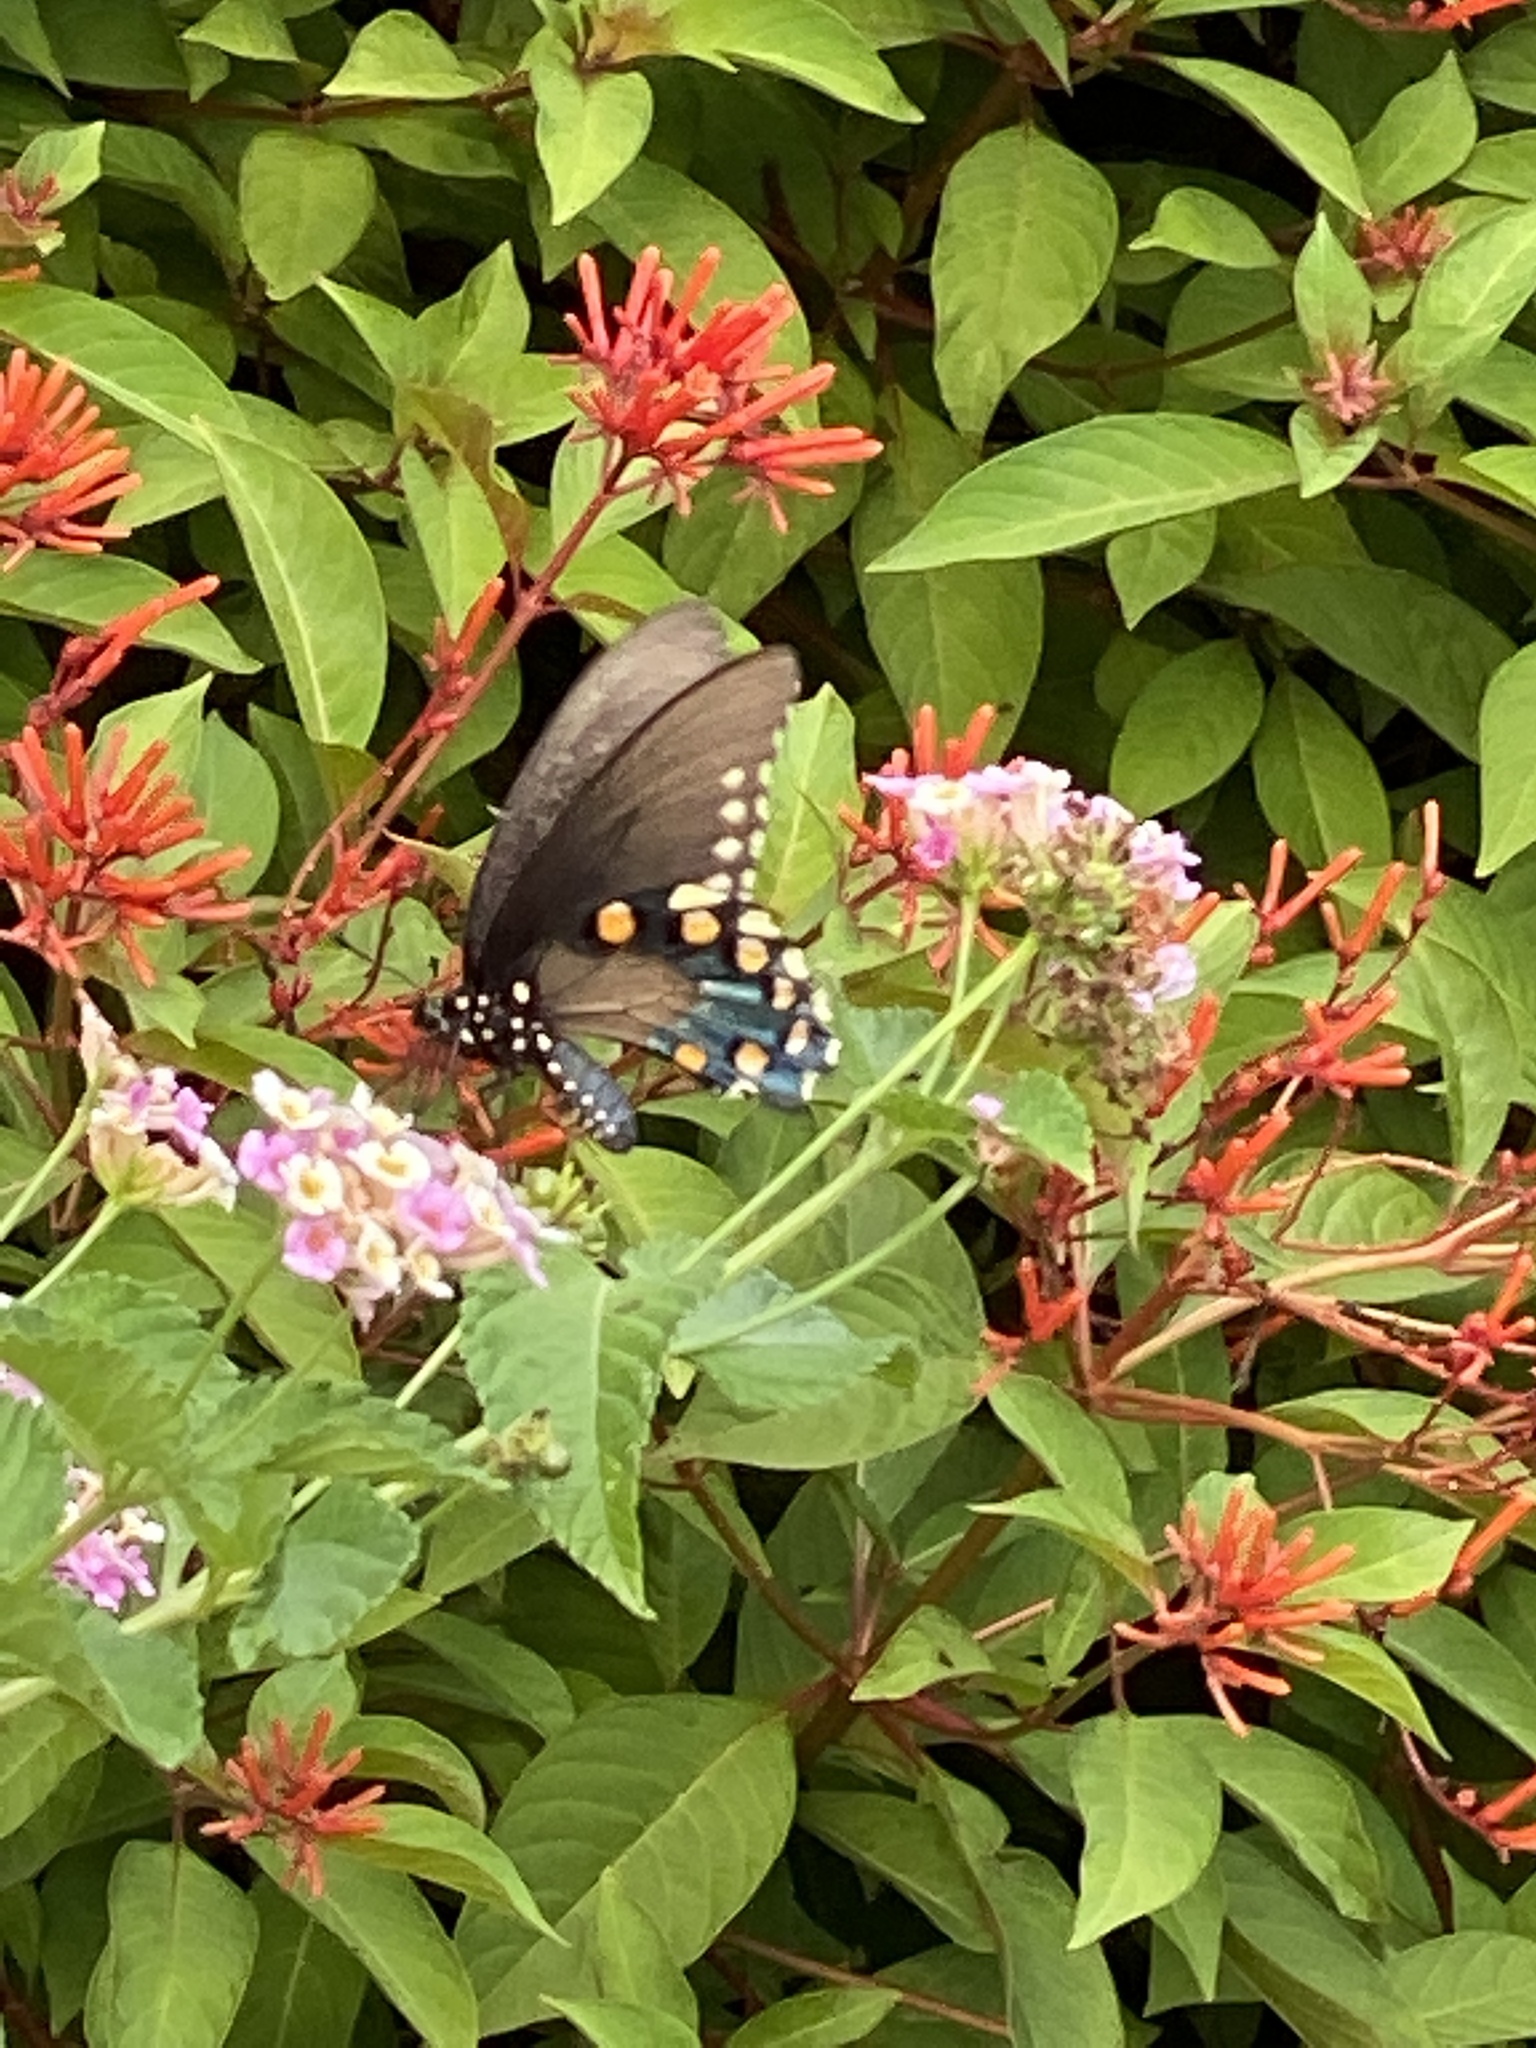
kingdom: Animalia
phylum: Arthropoda
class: Insecta
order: Lepidoptera
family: Papilionidae
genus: Battus
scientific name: Battus philenor
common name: Pipevine swallowtail
